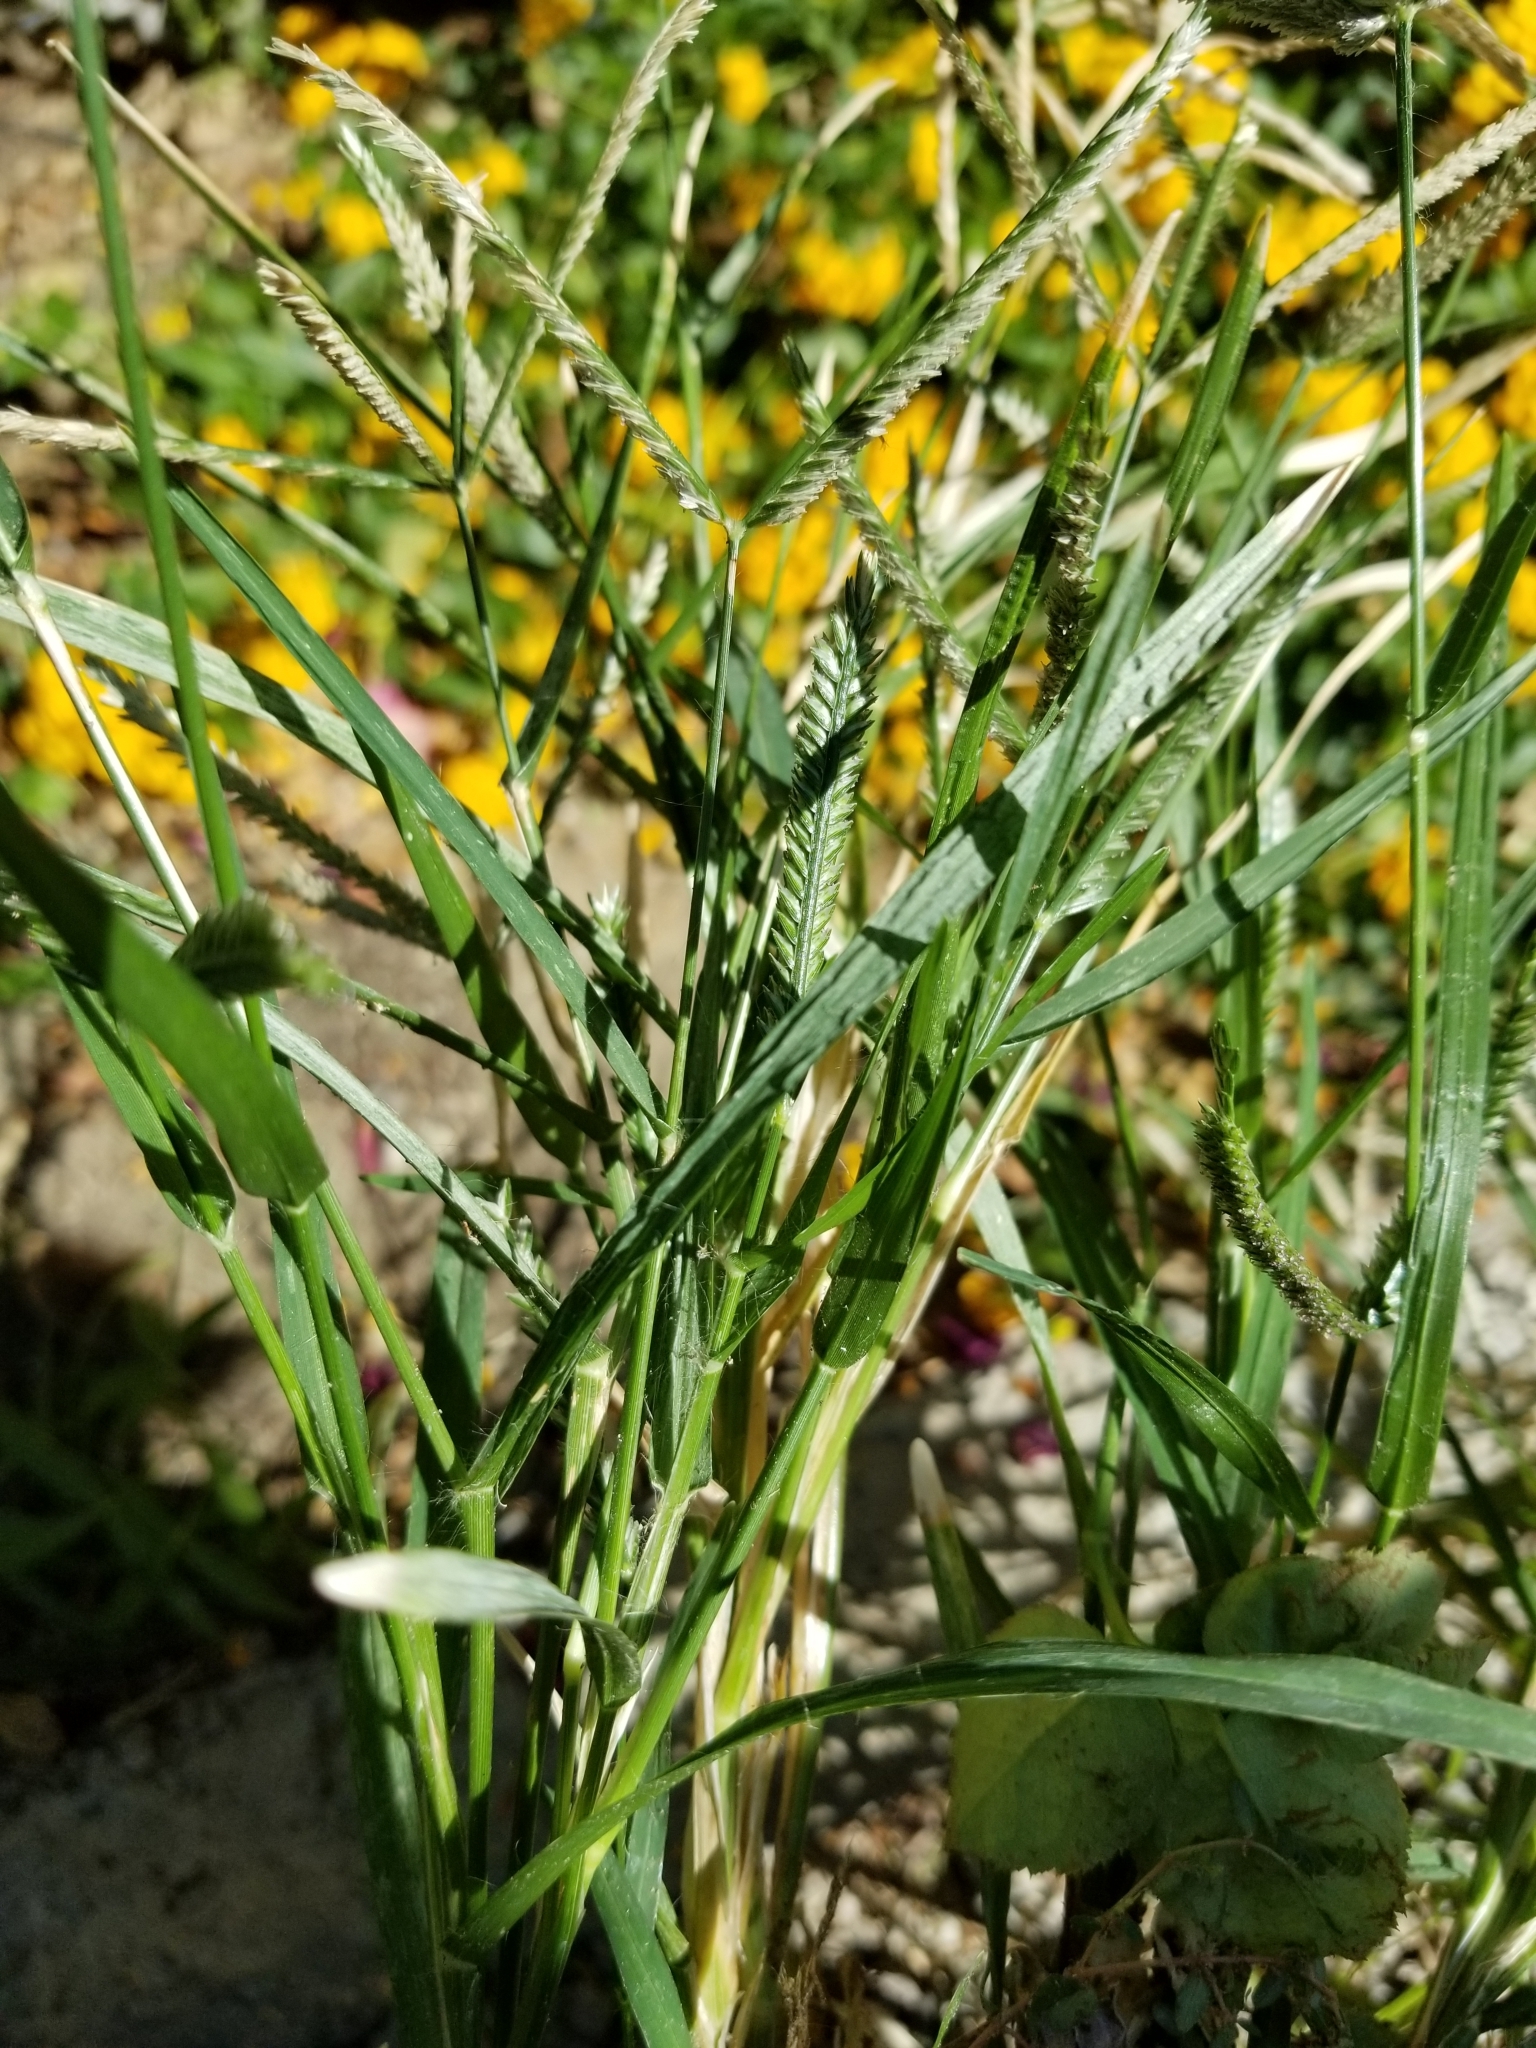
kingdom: Plantae
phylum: Tracheophyta
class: Liliopsida
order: Poales
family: Poaceae
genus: Eleusine
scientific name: Eleusine indica
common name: Yard-grass
